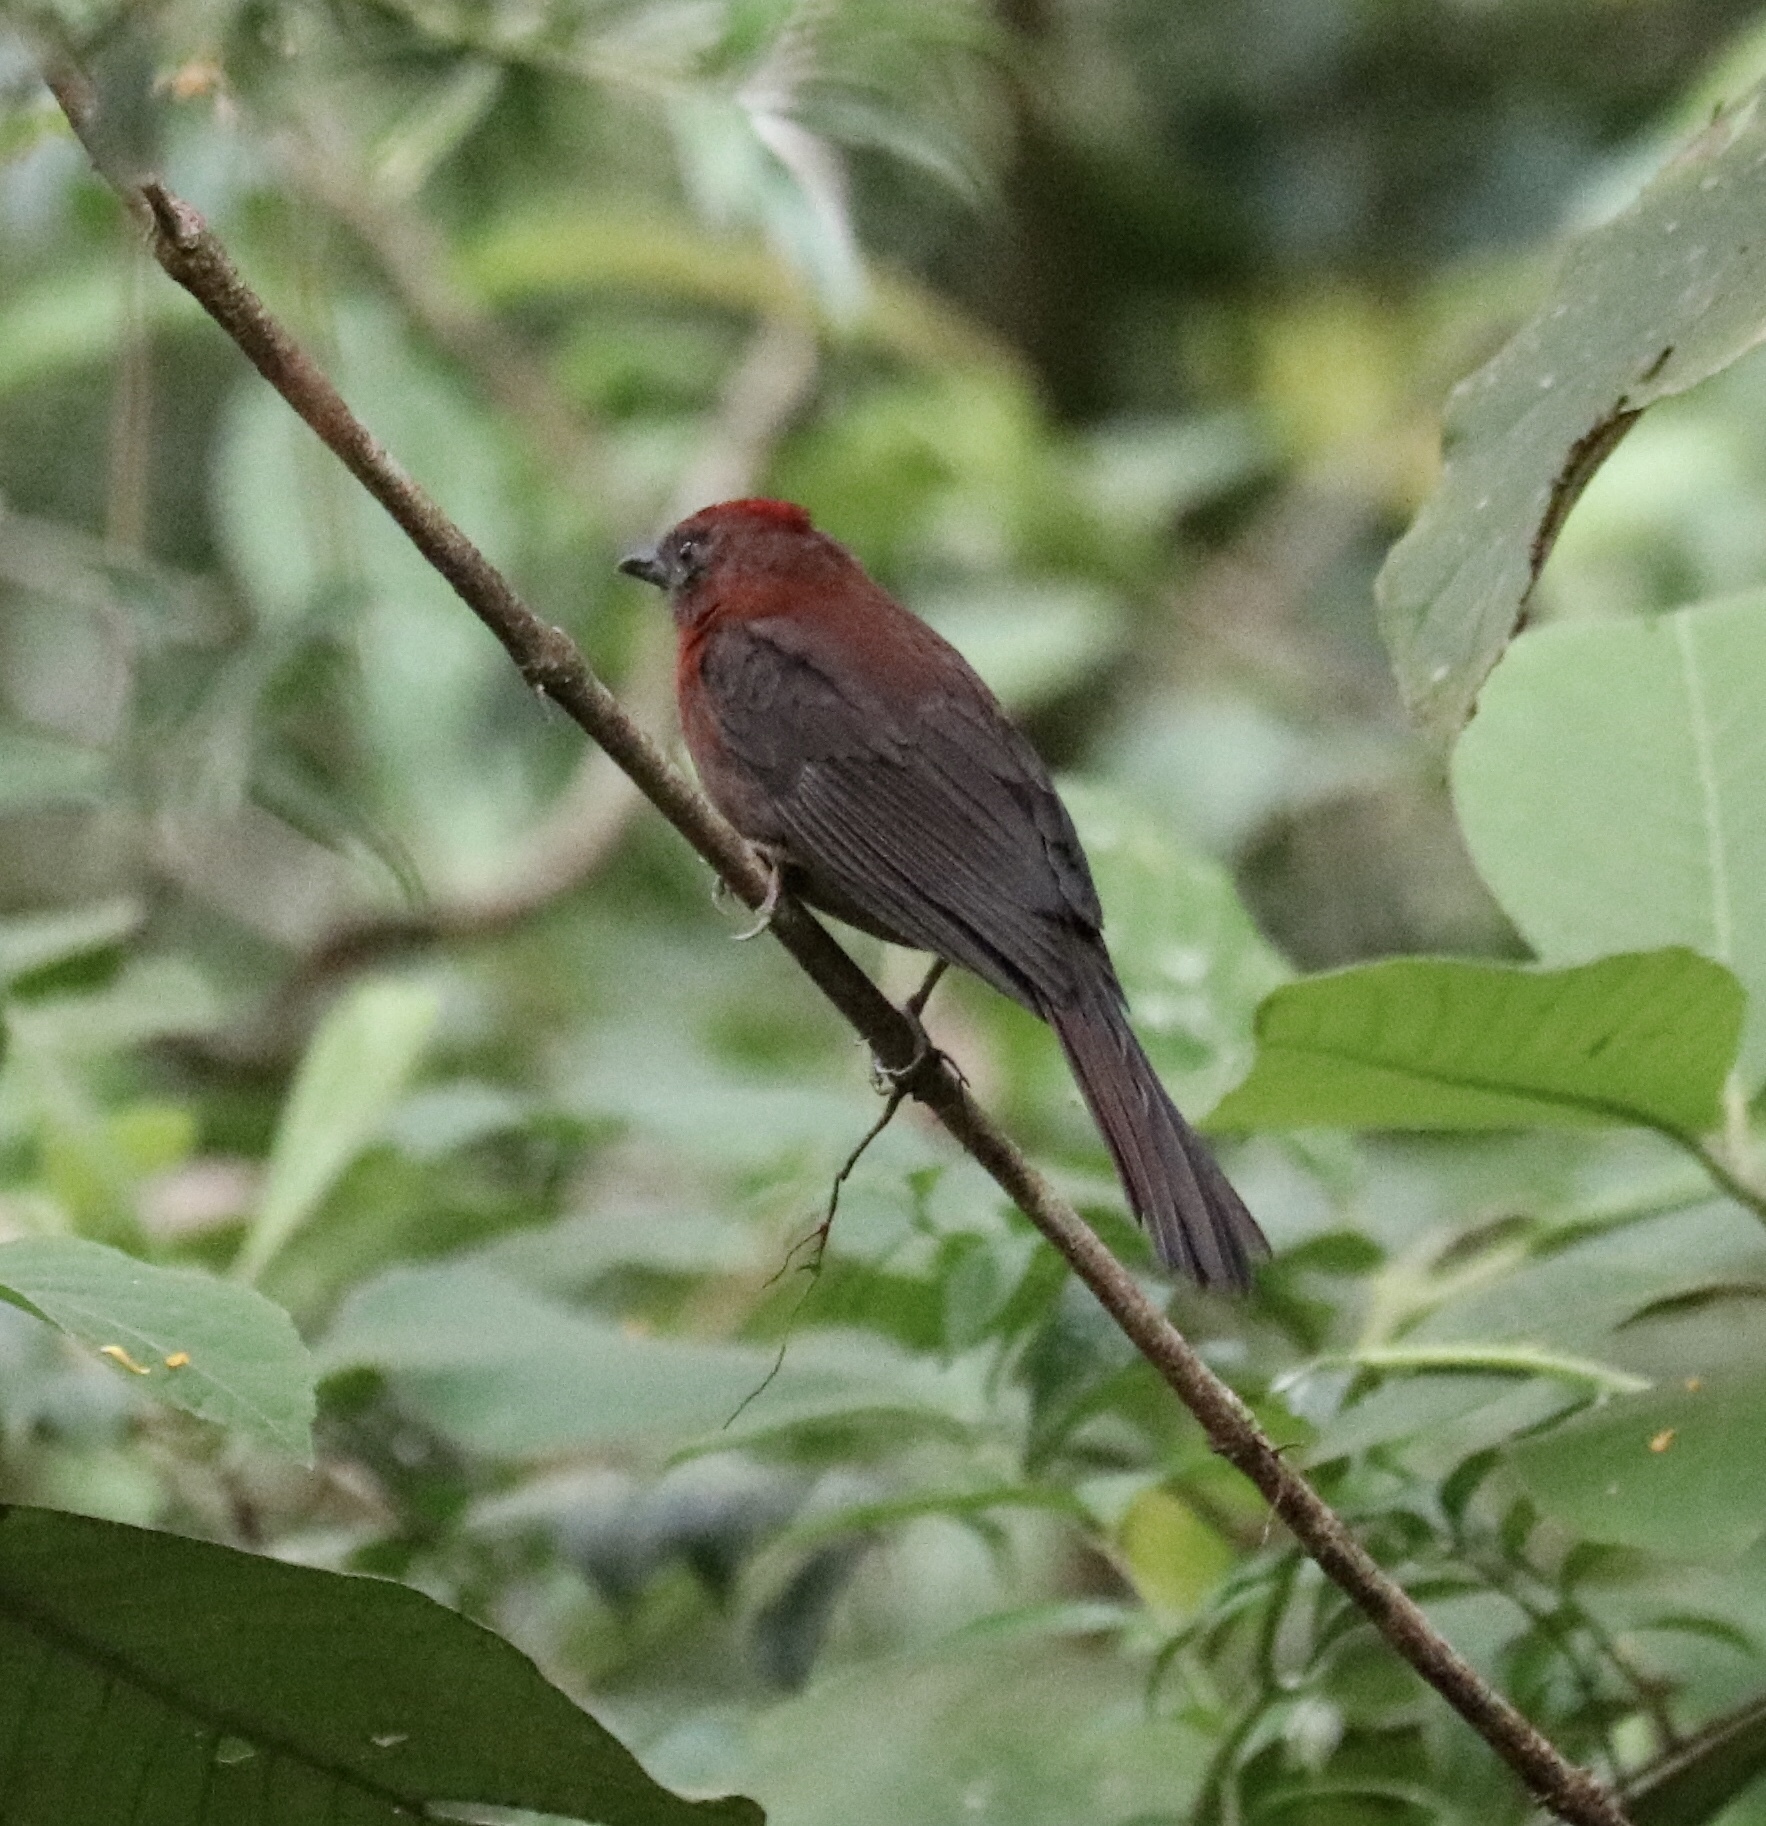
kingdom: Animalia
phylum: Chordata
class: Aves
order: Passeriformes
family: Cardinalidae
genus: Habia
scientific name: Habia rubica
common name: Red-crowned ant-tanager
